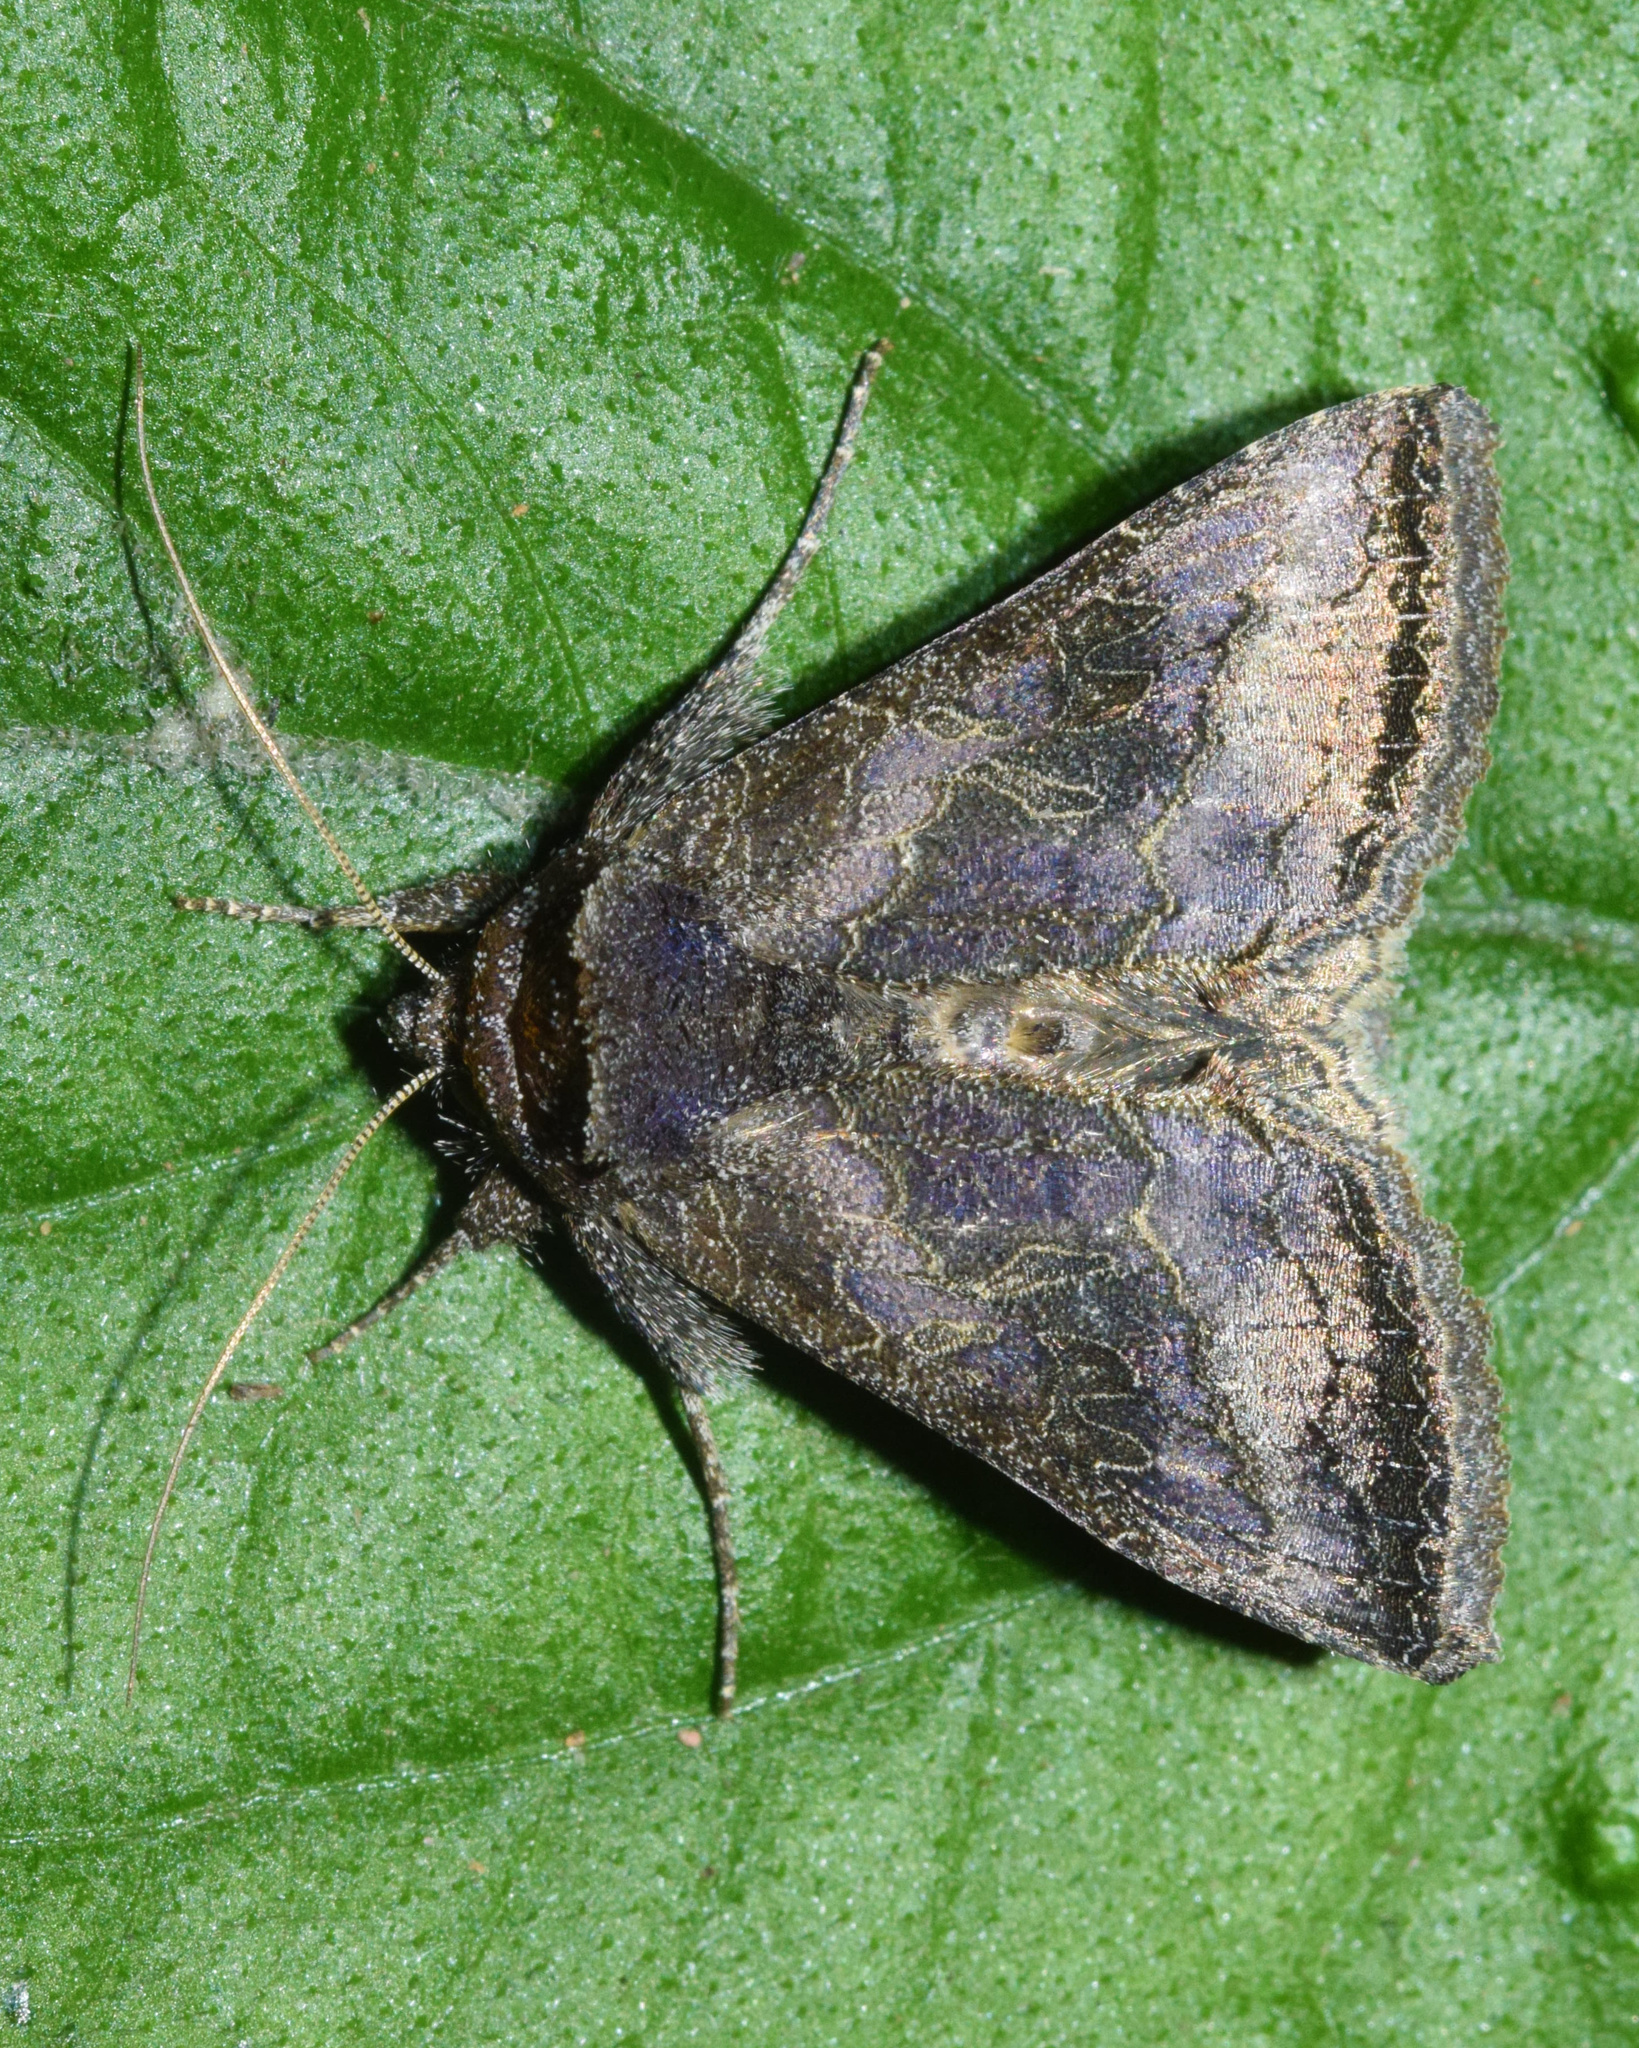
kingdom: Animalia
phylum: Arthropoda
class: Insecta
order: Lepidoptera
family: Noctuidae
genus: Thysanoplusia
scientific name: Thysanoplusia spoliata
